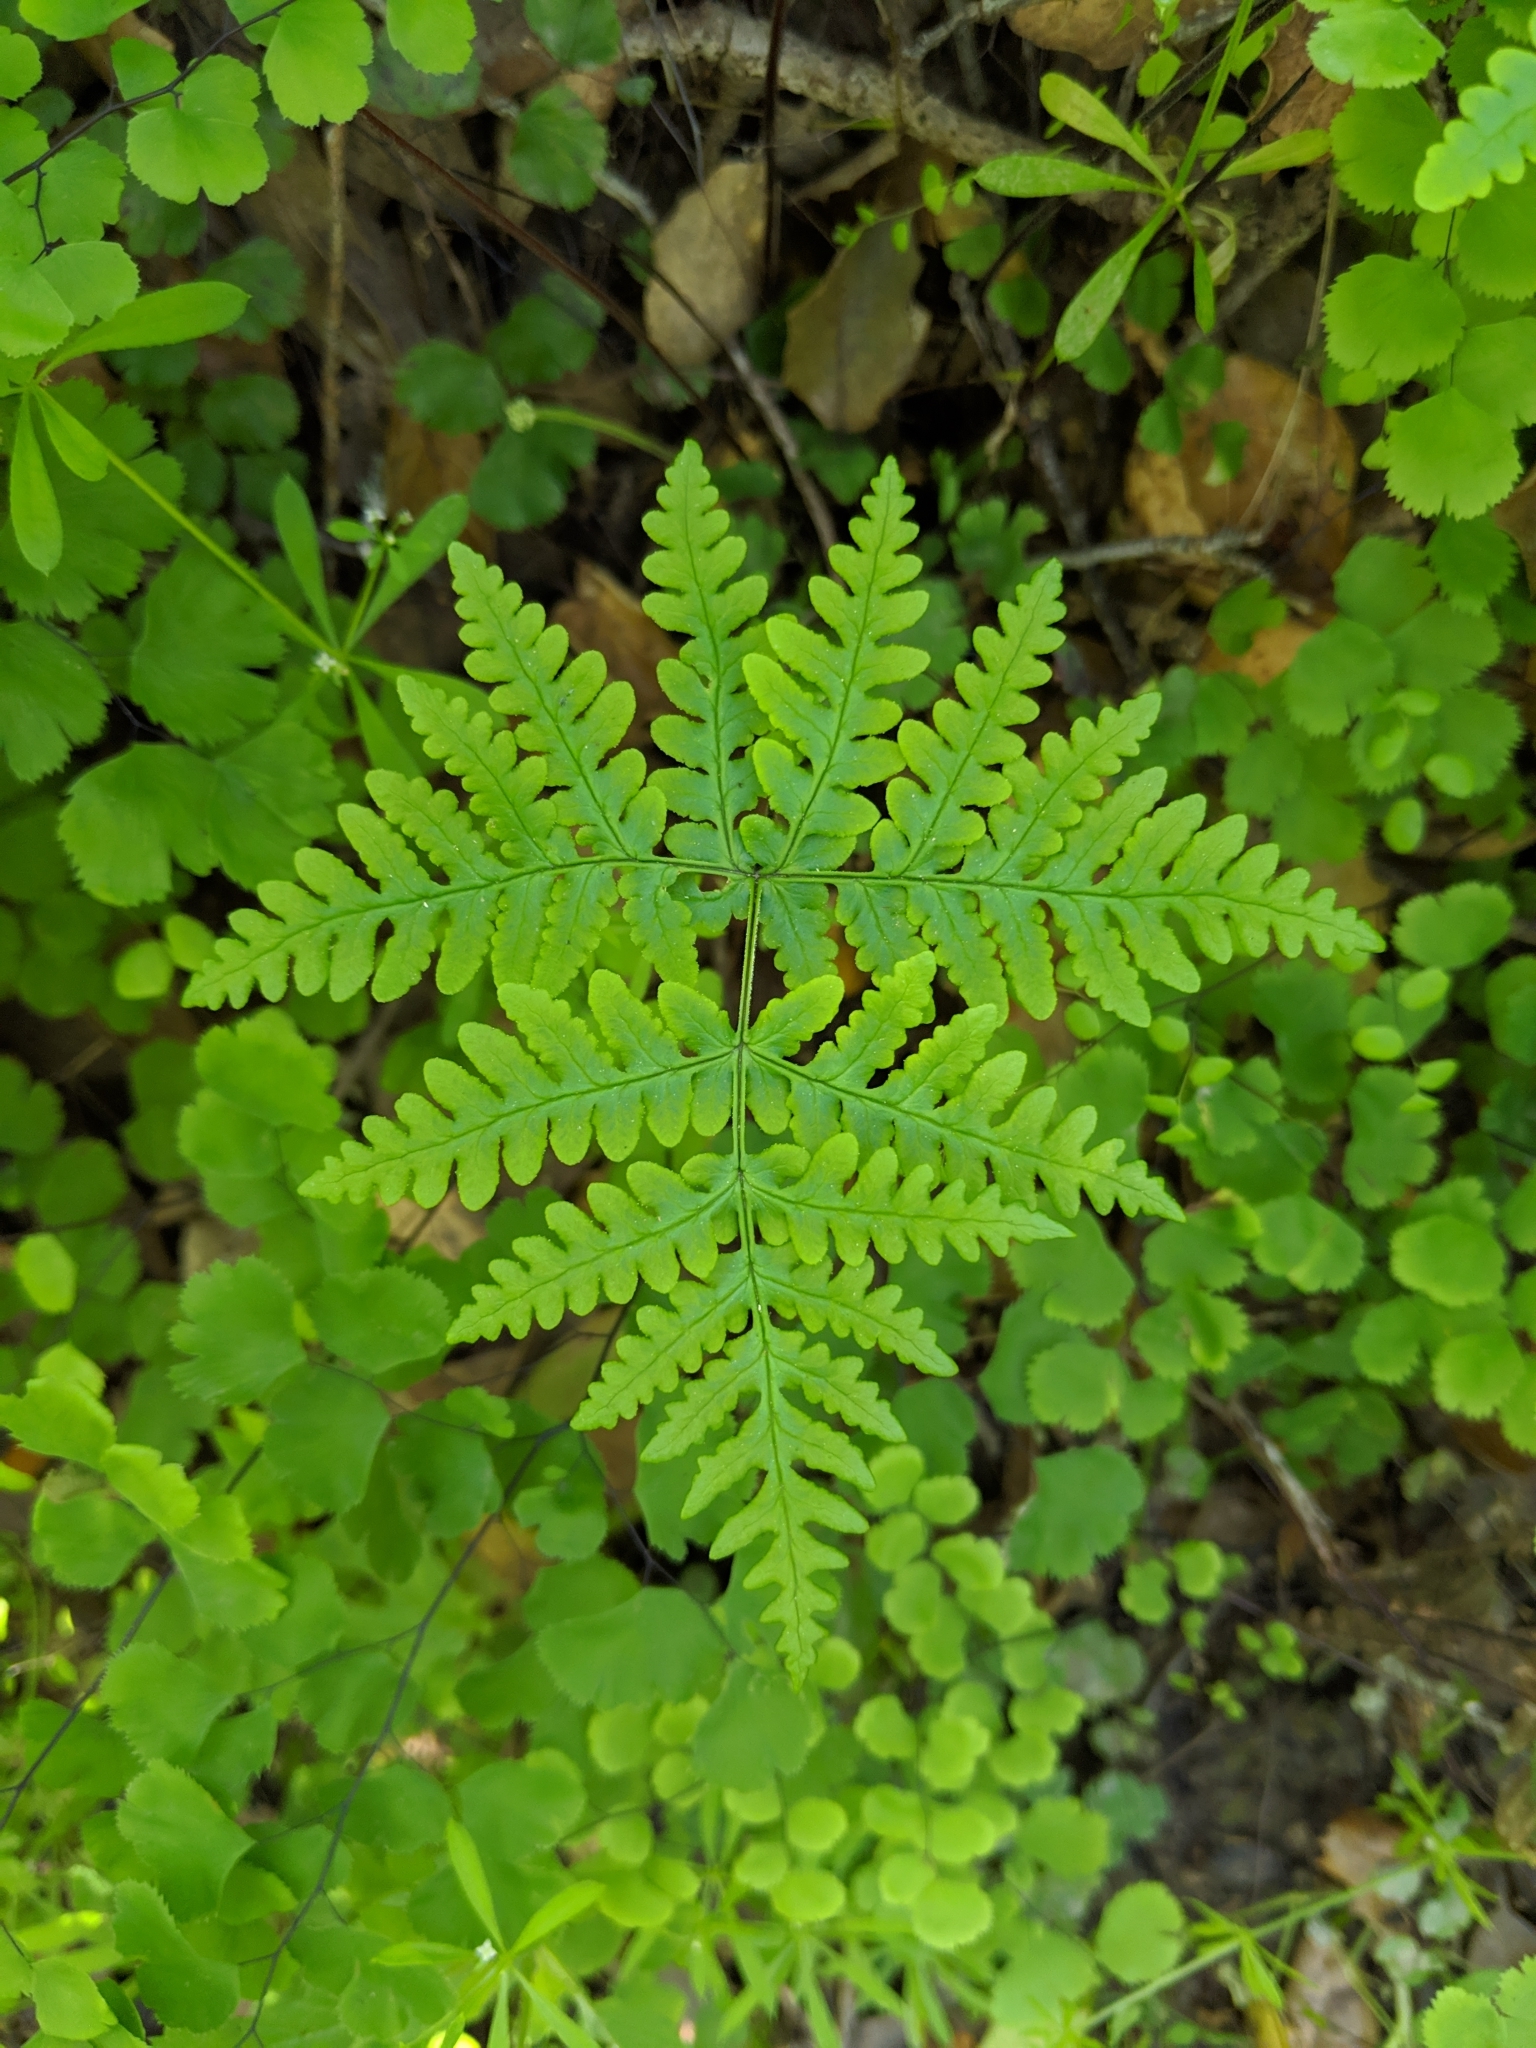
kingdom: Plantae
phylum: Tracheophyta
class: Polypodiopsida
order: Polypodiales
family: Pteridaceae
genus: Pentagramma
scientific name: Pentagramma triangularis
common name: Gold fern
